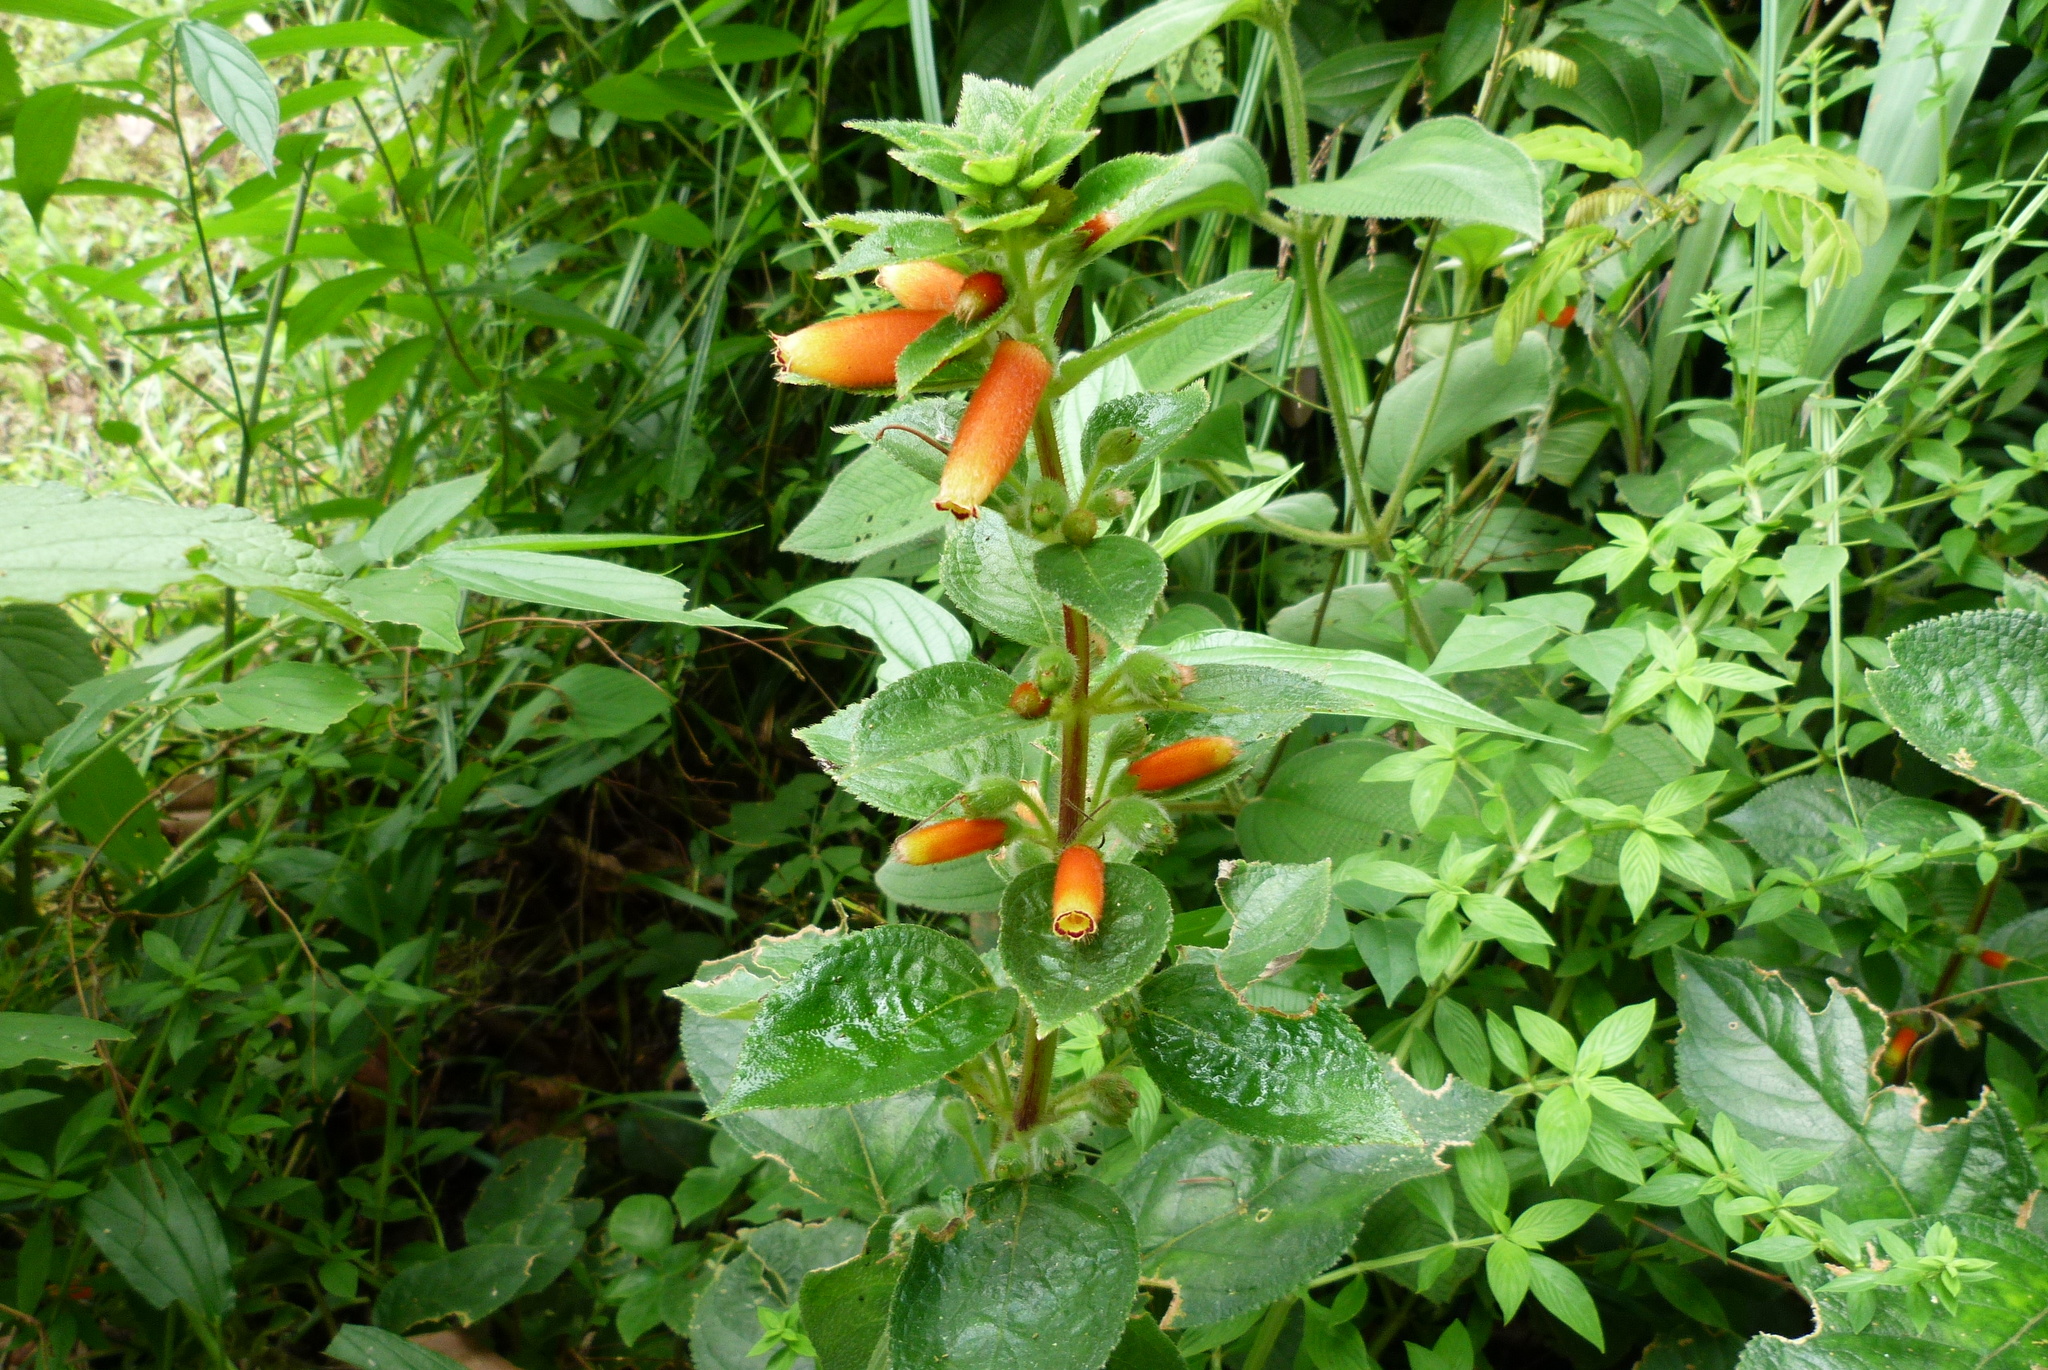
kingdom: Plantae
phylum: Tracheophyta
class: Magnoliopsida
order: Lamiales
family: Gesneriaceae
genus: Kohleria
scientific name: Kohleria tubiflora
